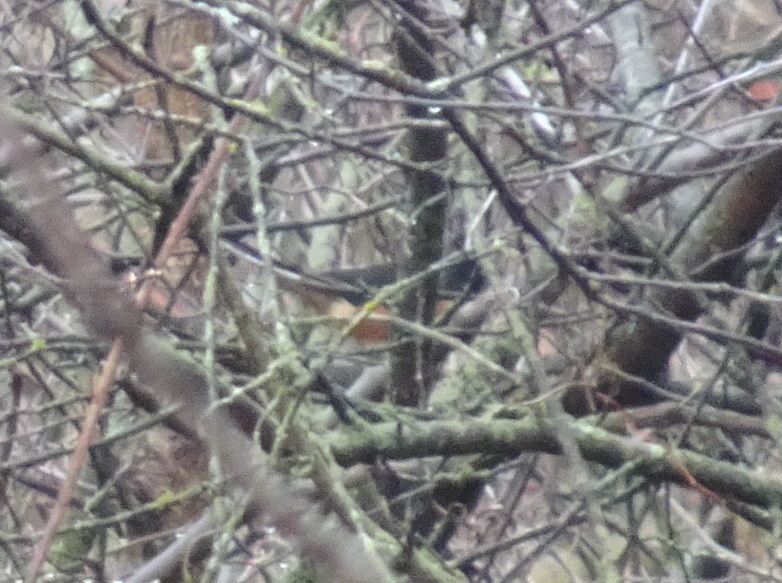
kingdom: Animalia
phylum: Chordata
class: Aves
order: Passeriformes
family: Passerellidae
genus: Pipilo
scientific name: Pipilo erythrophthalmus
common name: Eastern towhee
